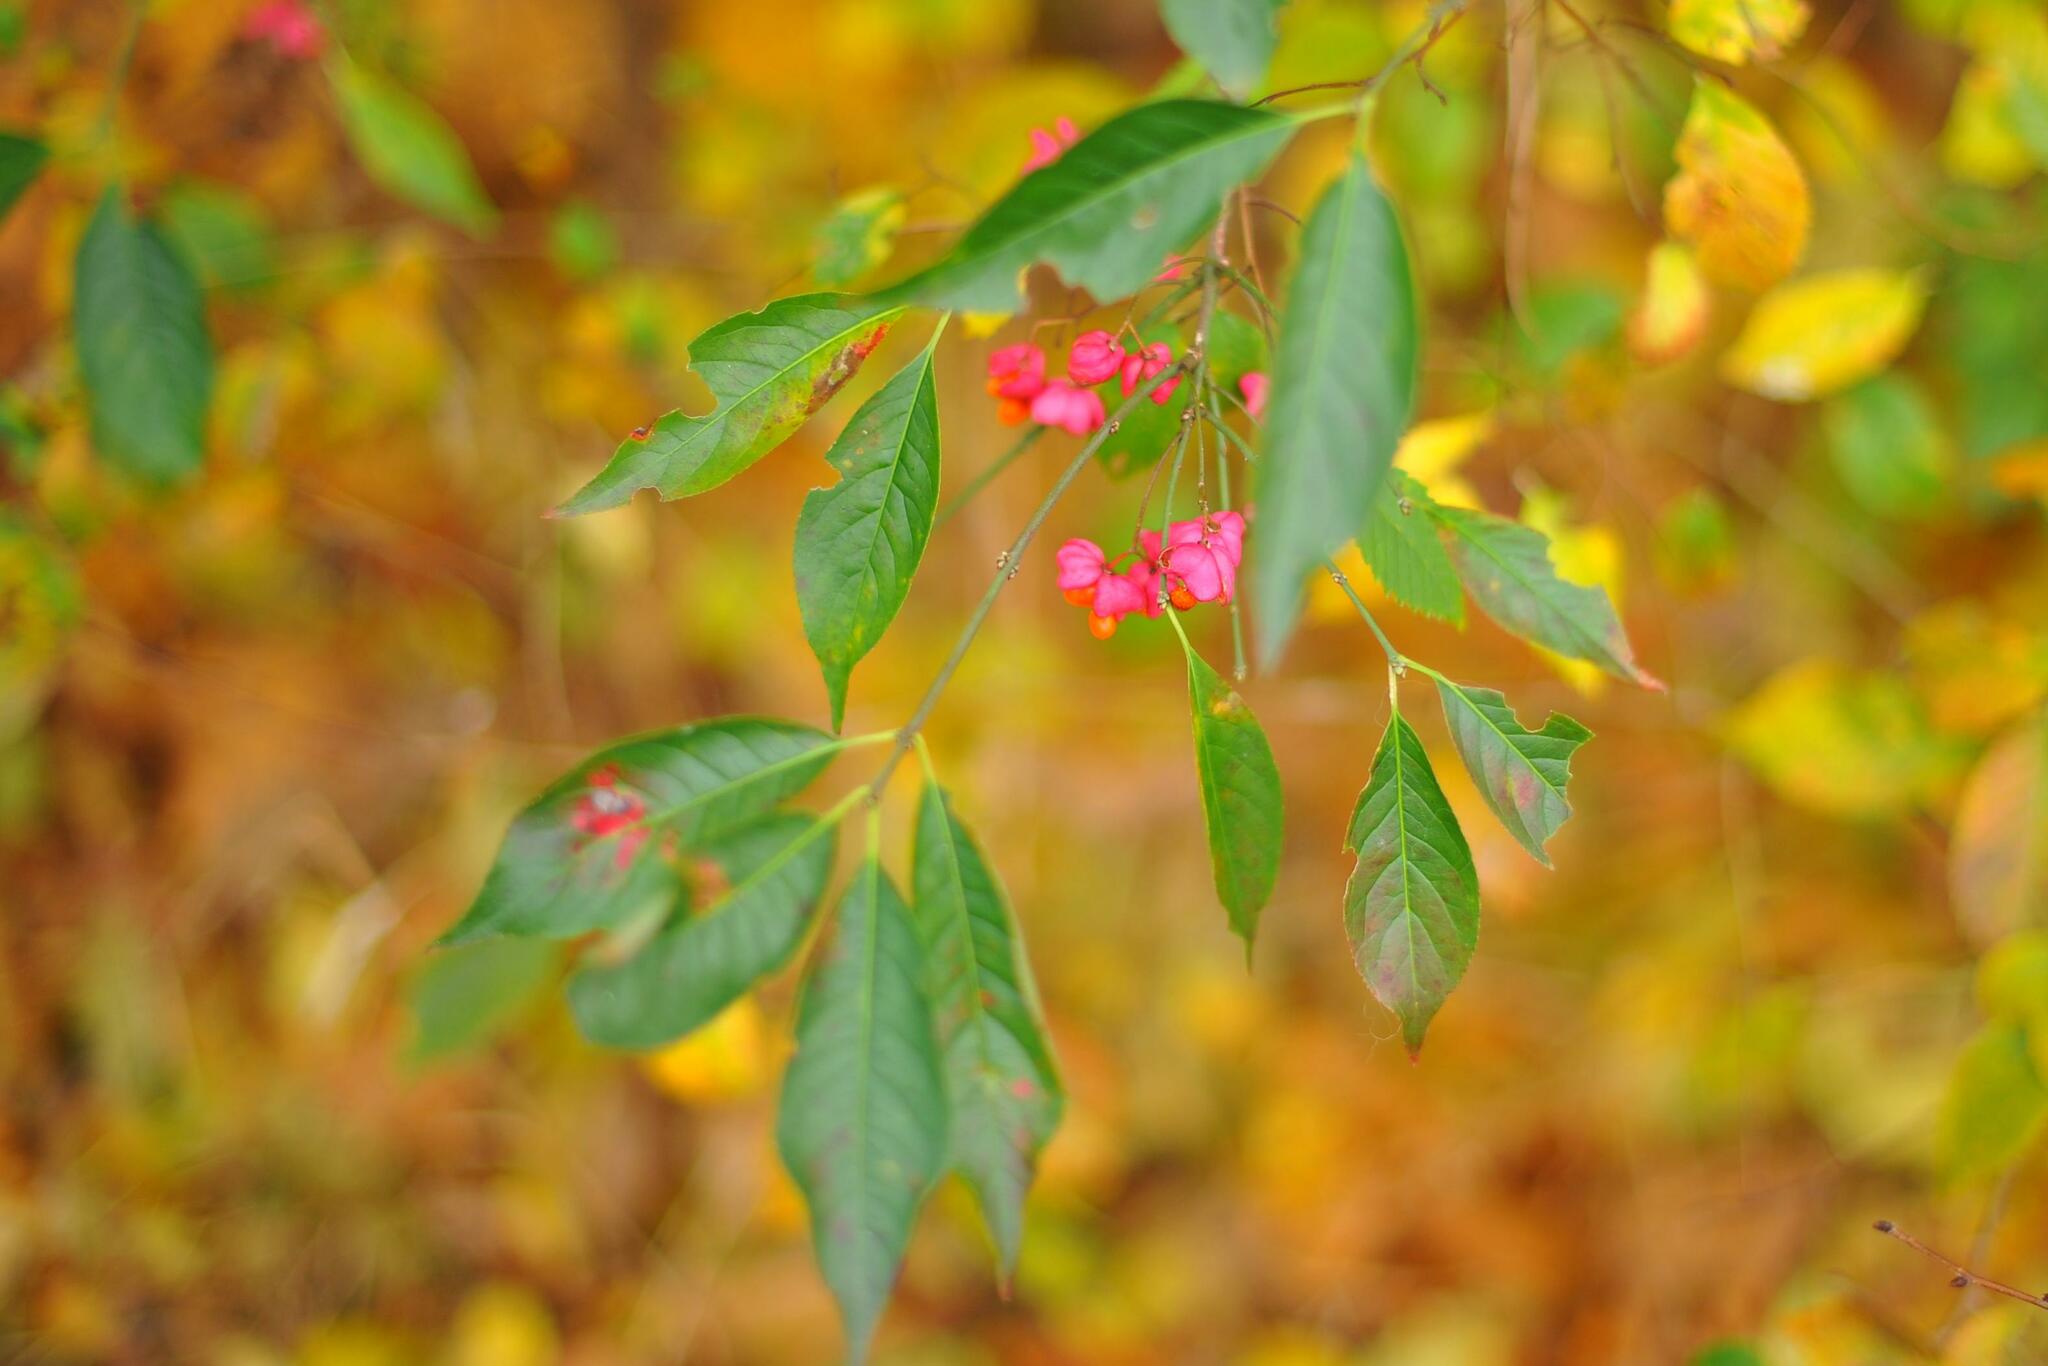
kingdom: Plantae
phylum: Tracheophyta
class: Magnoliopsida
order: Celastrales
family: Celastraceae
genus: Euonymus
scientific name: Euonymus europaeus
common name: Spindle
